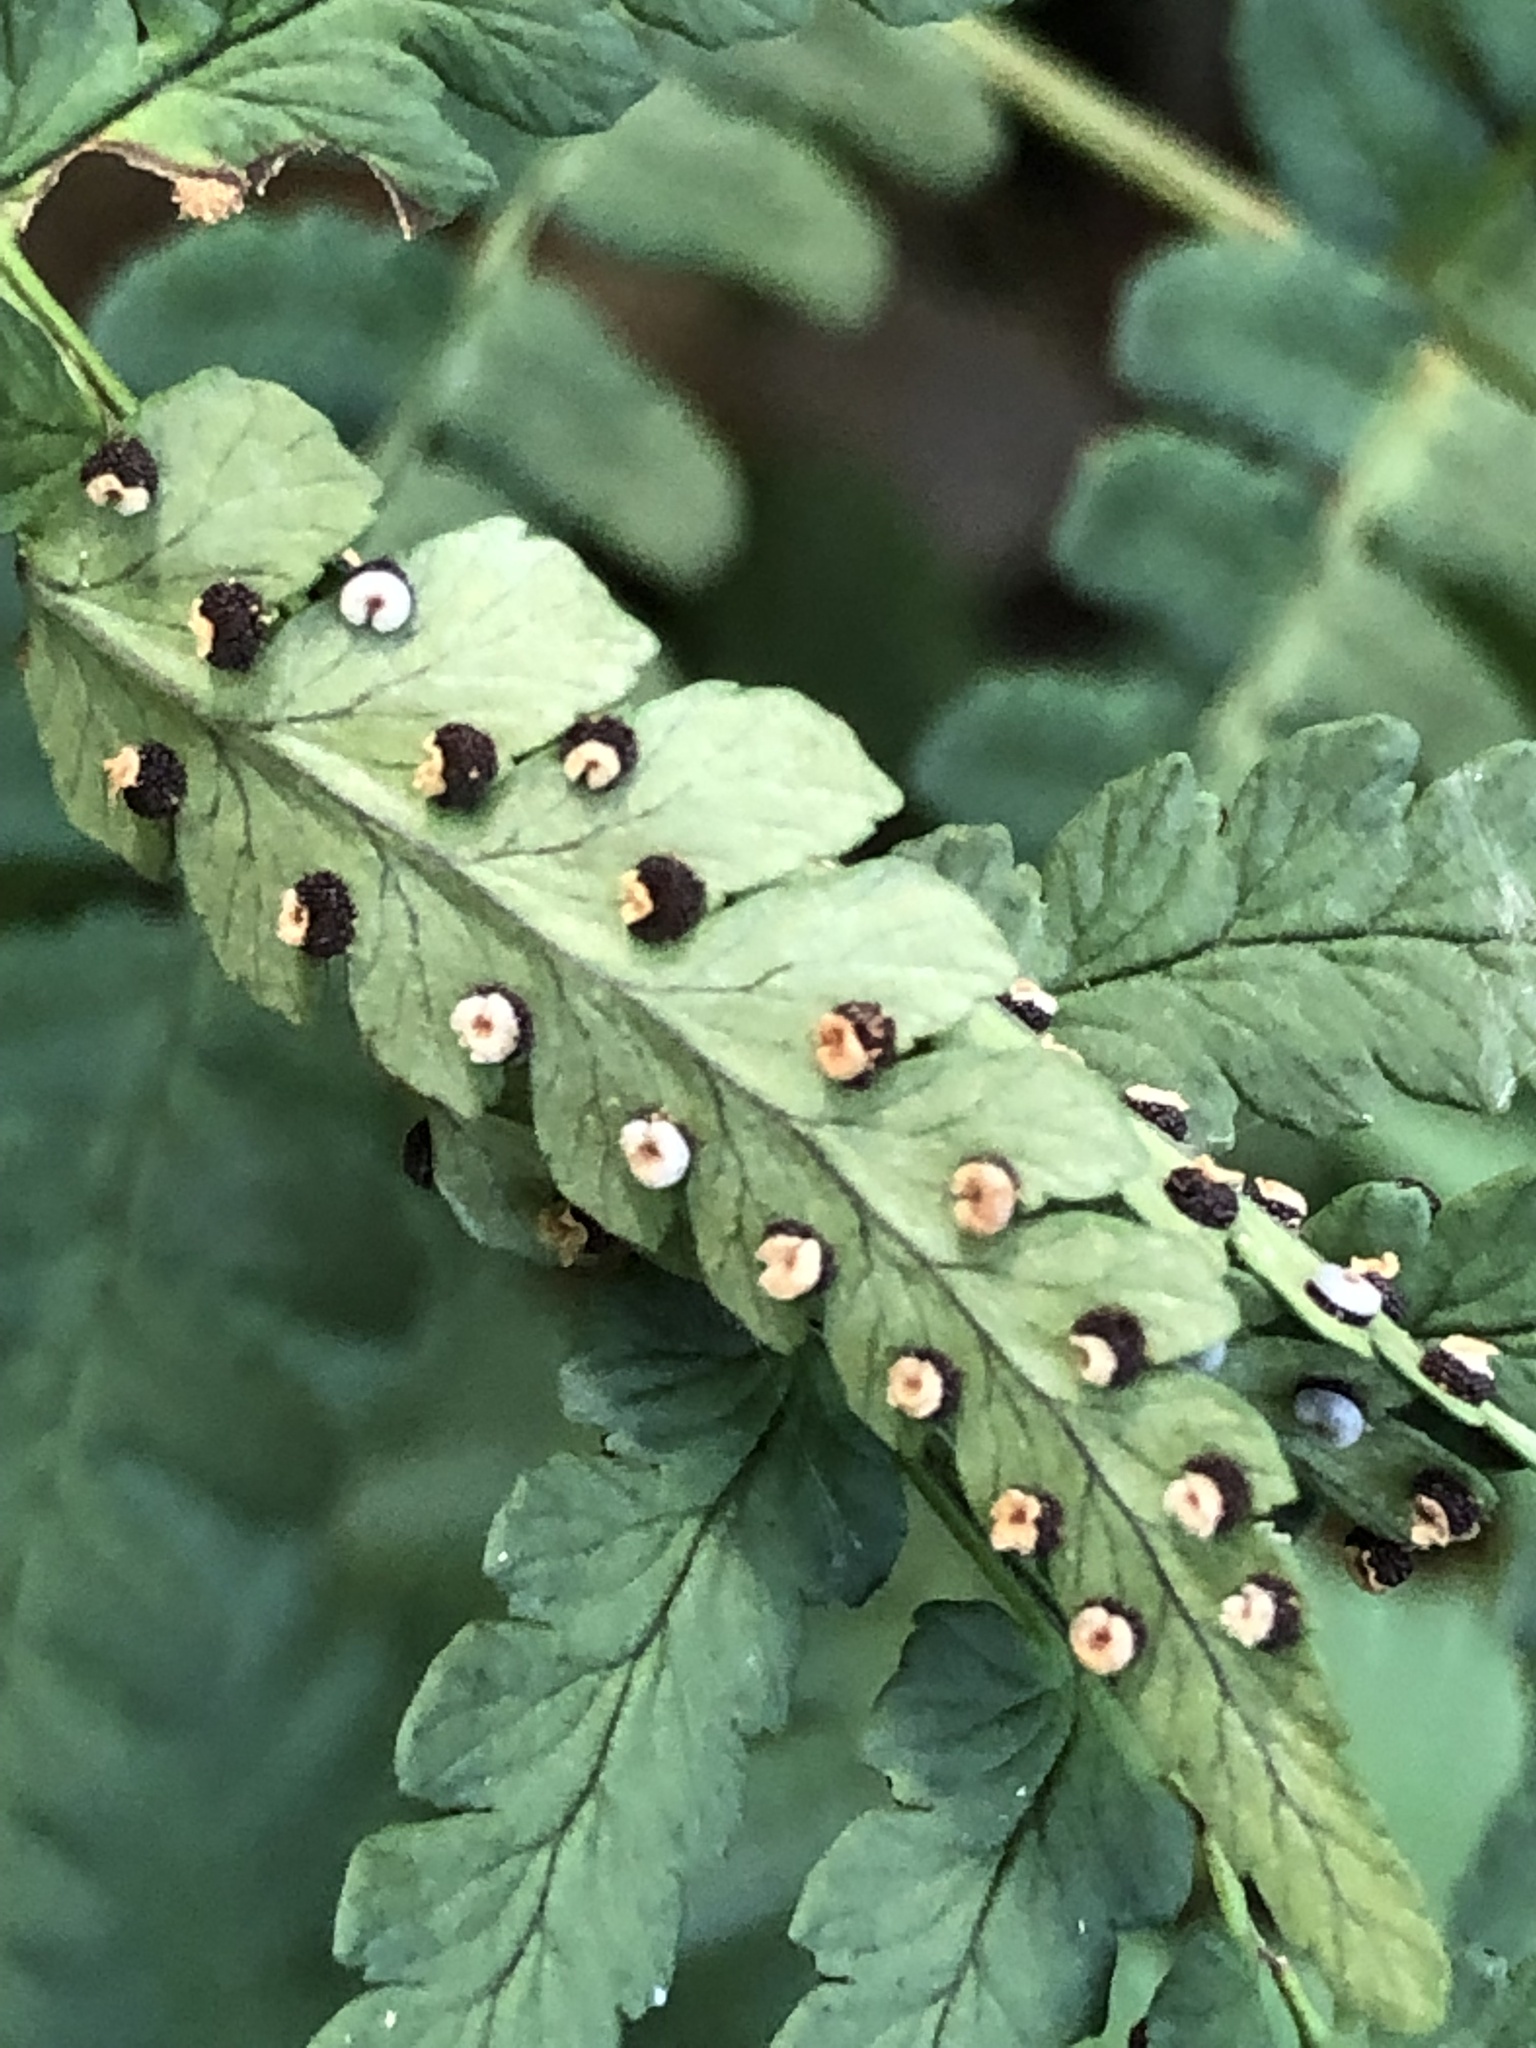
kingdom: Plantae
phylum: Tracheophyta
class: Polypodiopsida
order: Polypodiales
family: Dryopteridaceae
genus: Dryopteris
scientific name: Dryopteris marginalis
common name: Marginal wood fern
